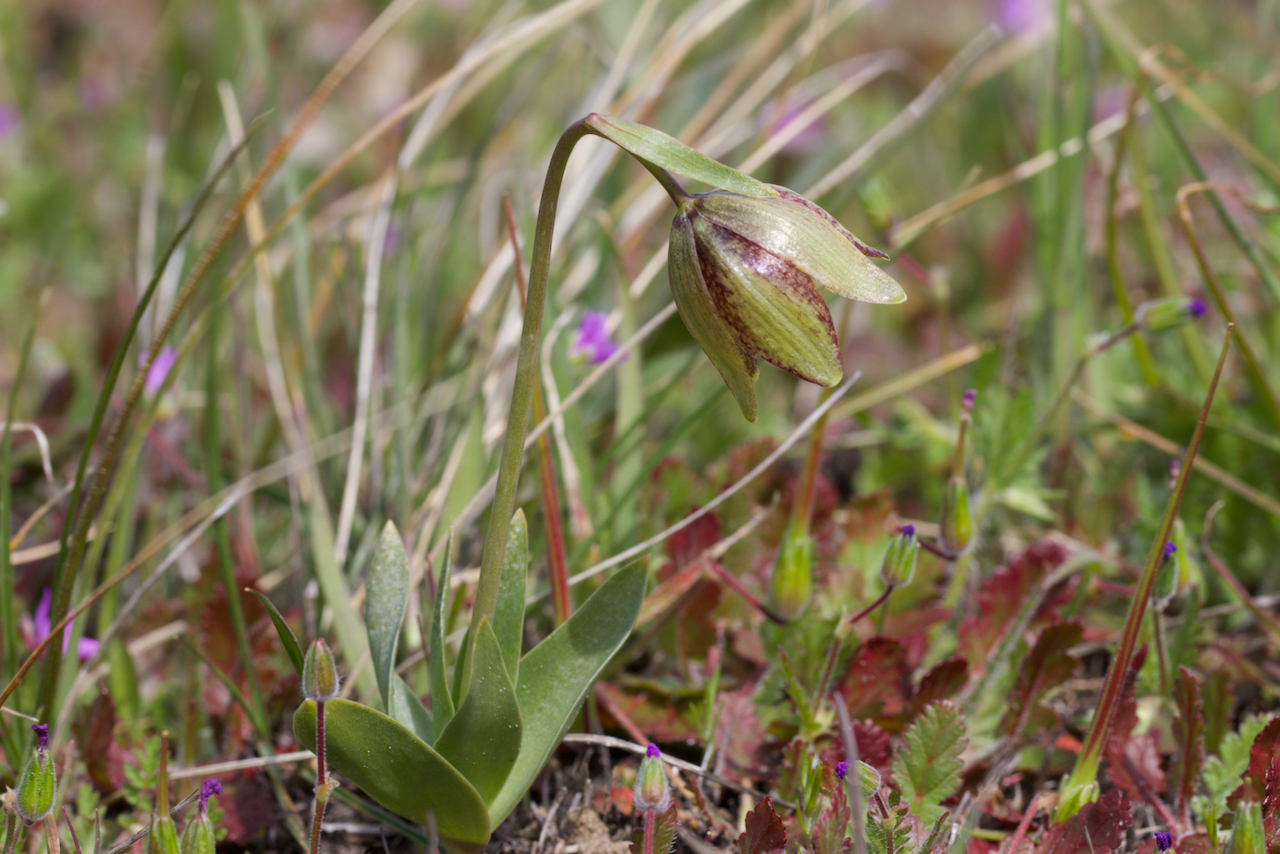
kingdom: Plantae
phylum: Tracheophyta
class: Liliopsida
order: Liliales
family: Liliaceae
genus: Fritillaria
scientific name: Fritillaria agrestis
